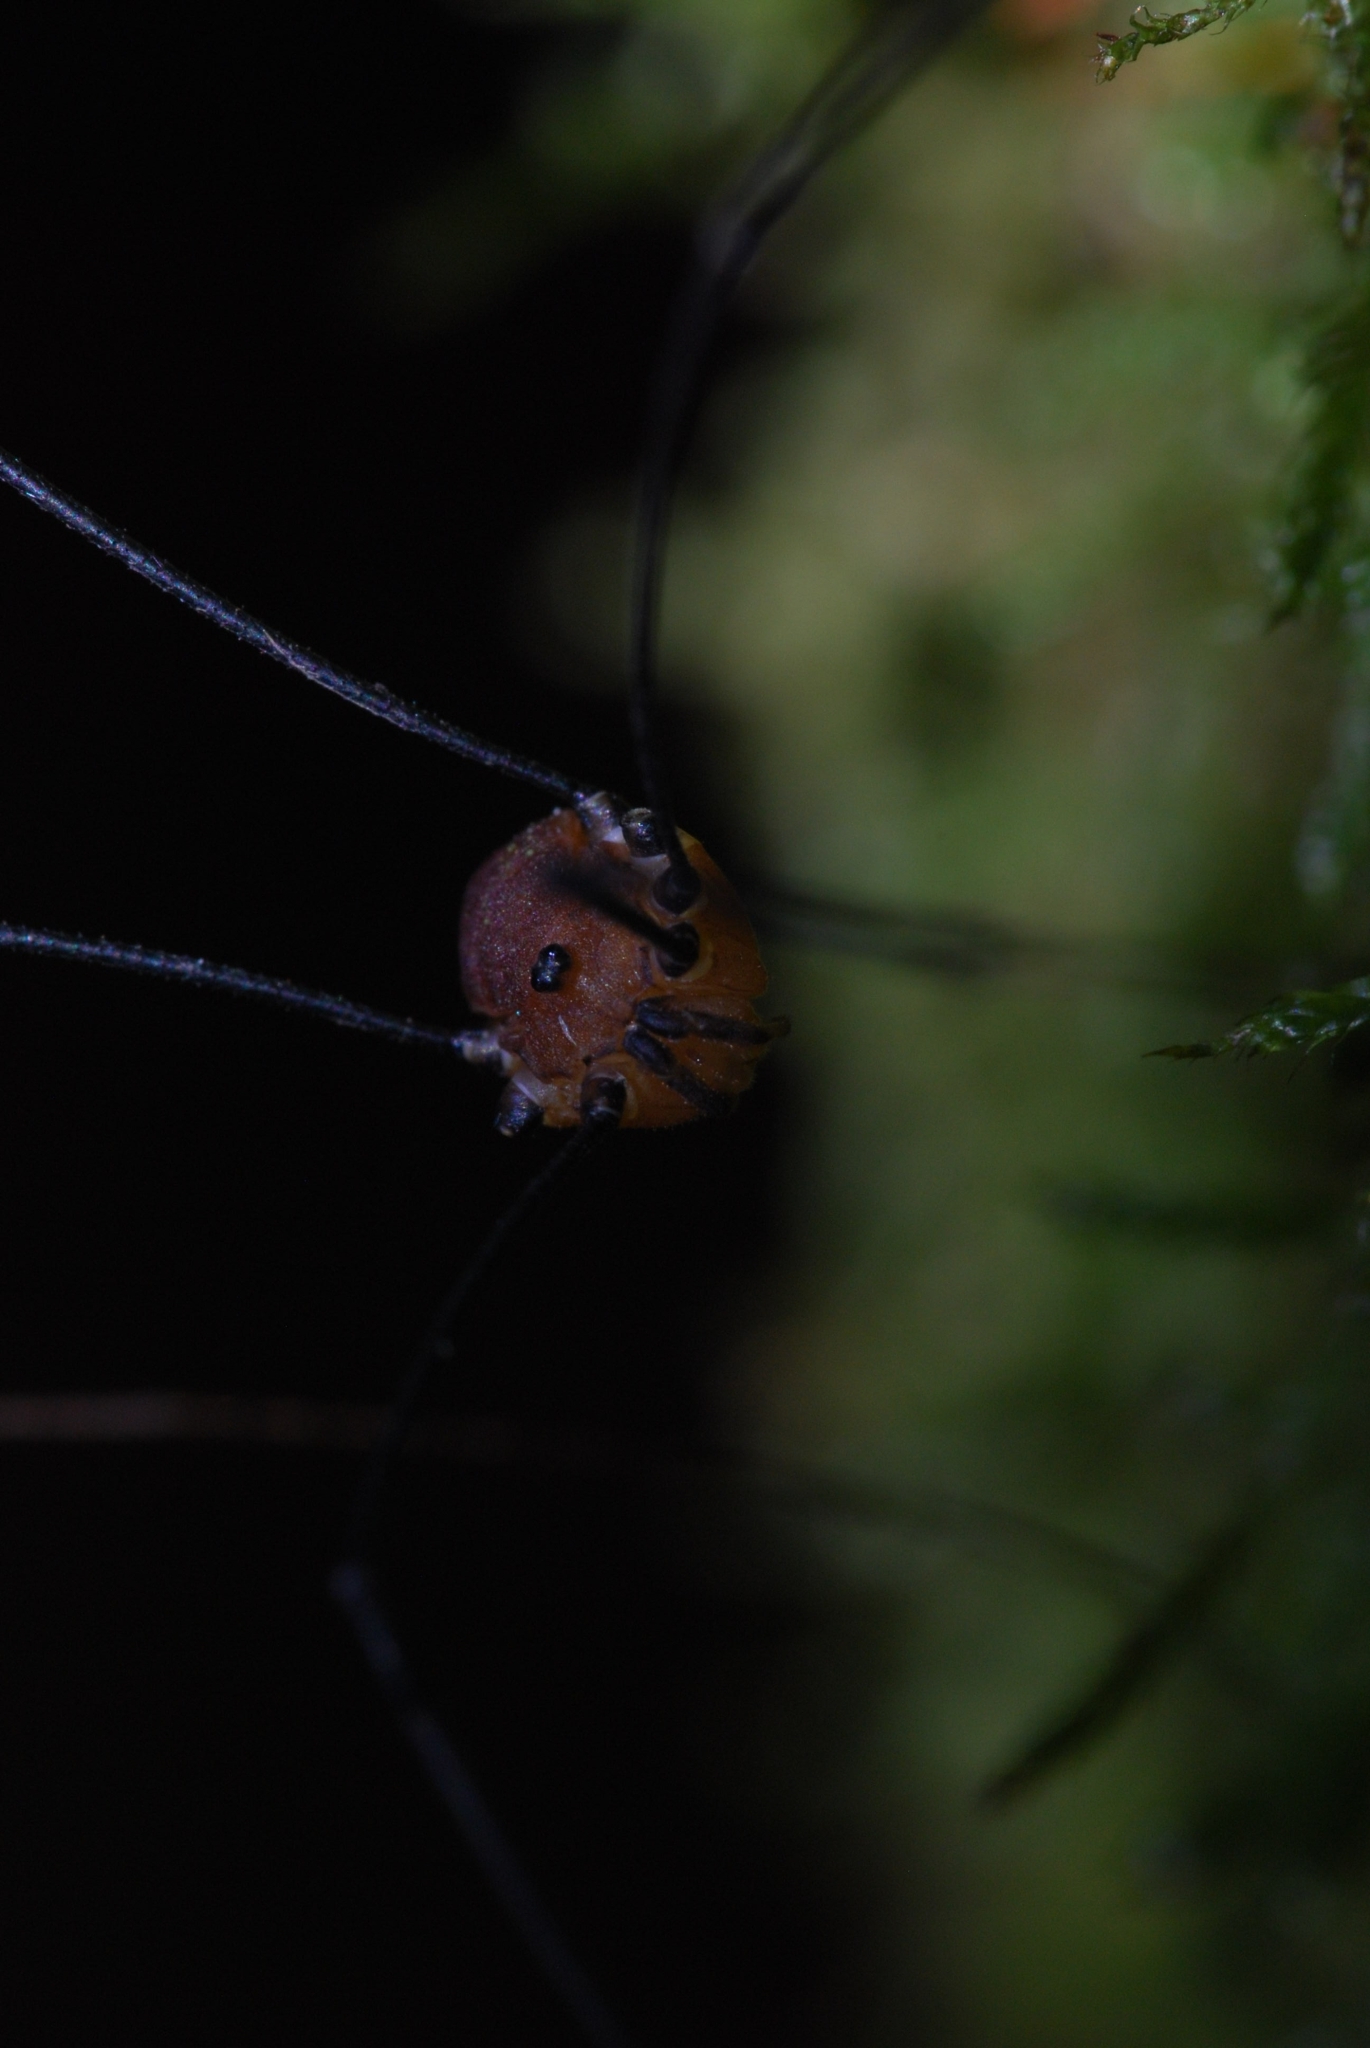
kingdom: Animalia
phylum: Arthropoda
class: Arachnida
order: Opiliones
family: Sclerosomatidae
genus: Leiobunum
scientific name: Leiobunum rotundum
